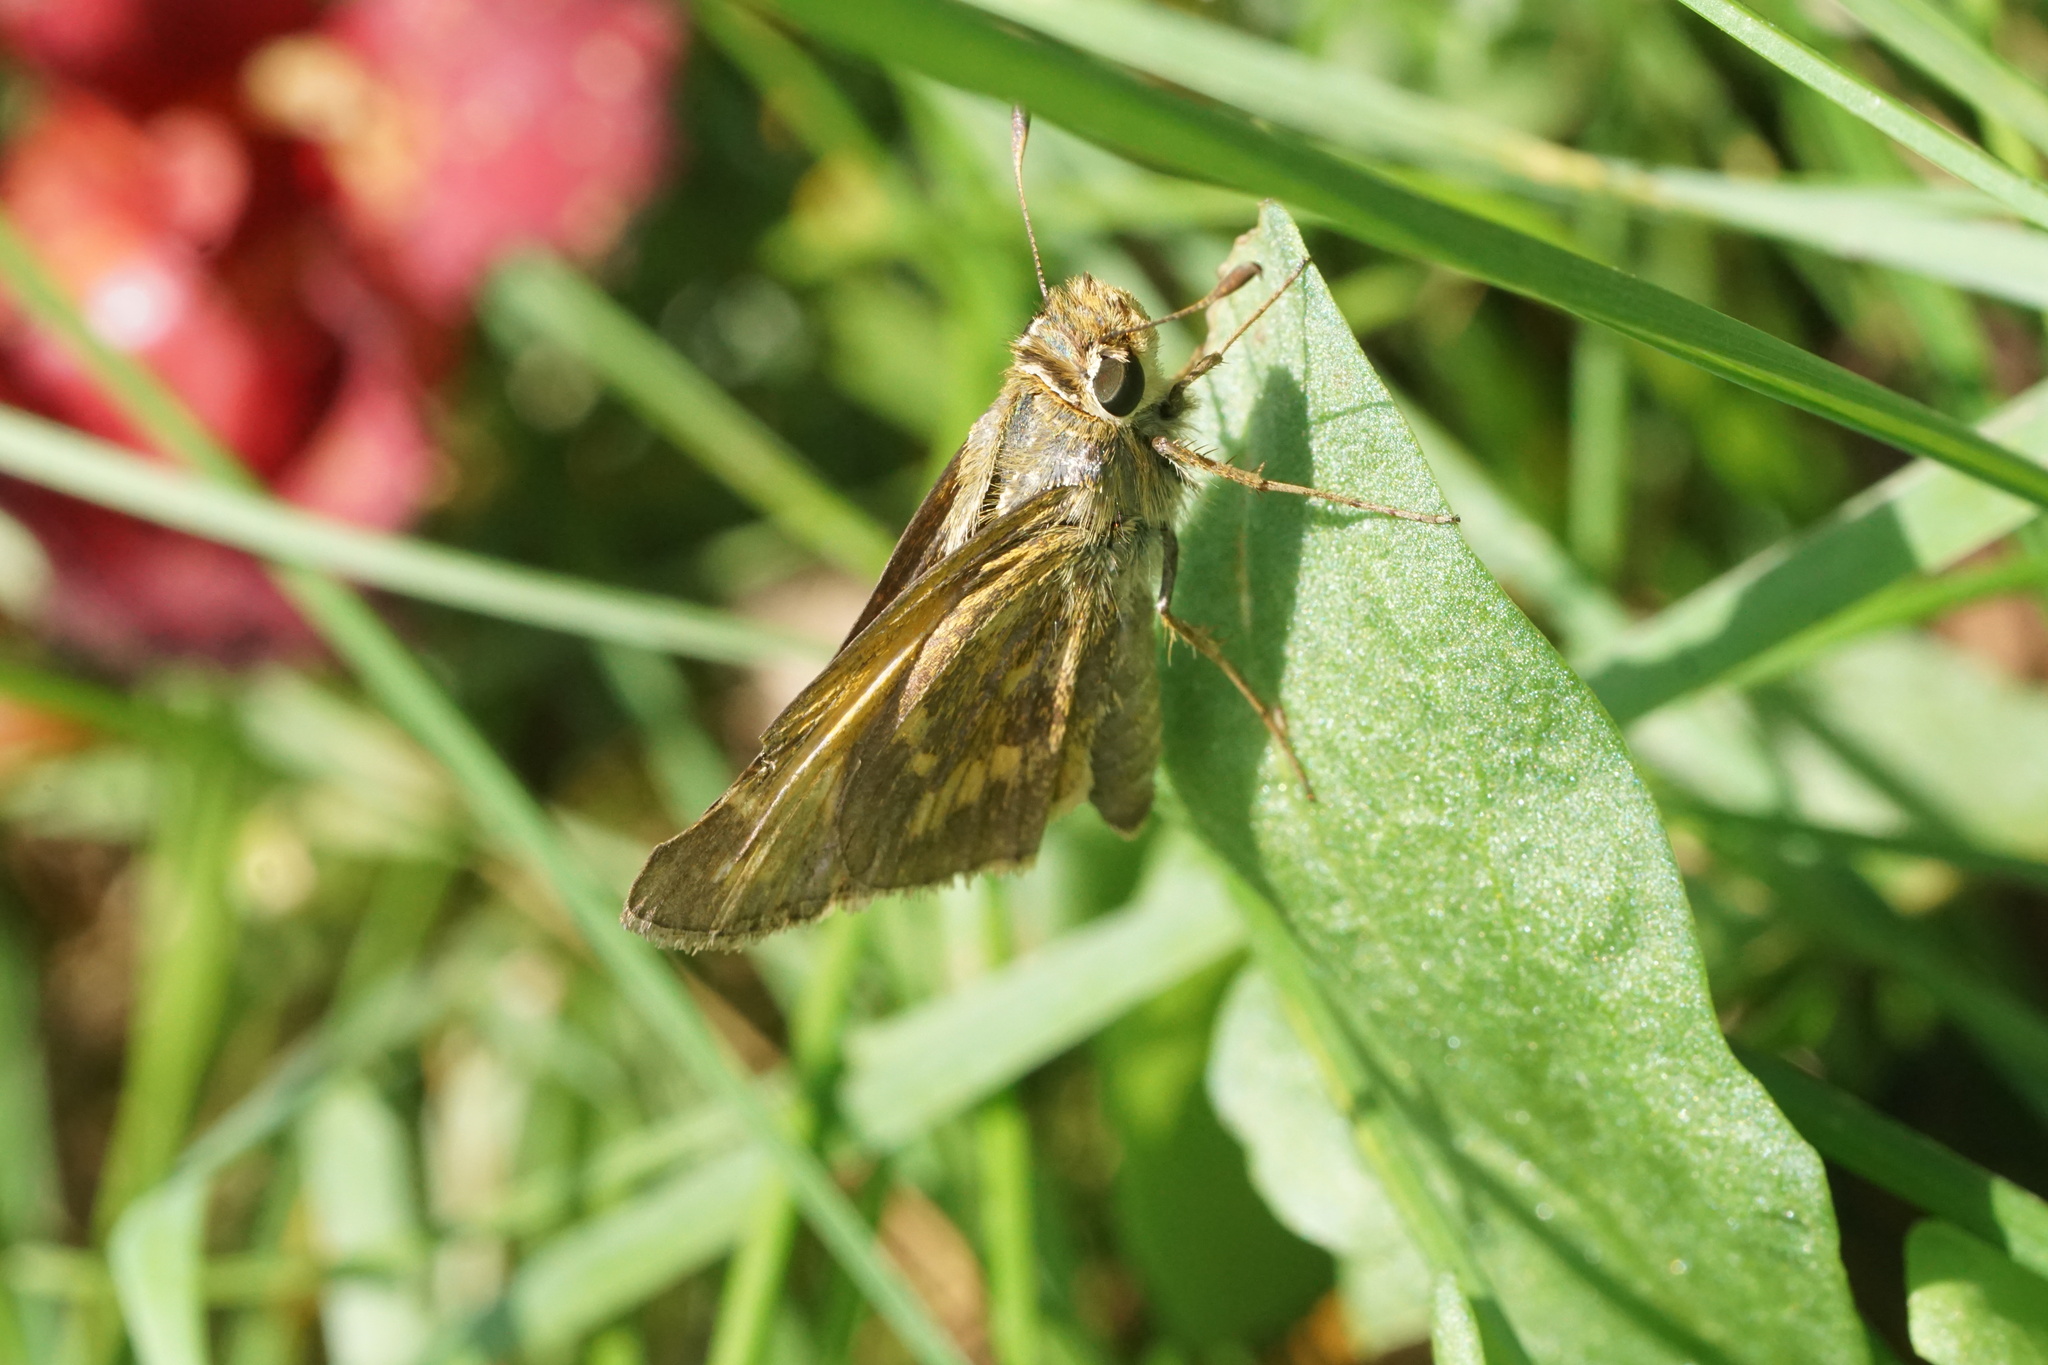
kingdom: Animalia
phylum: Arthropoda
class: Insecta
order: Lepidoptera
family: Hesperiidae
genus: Atalopedes
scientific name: Atalopedes
